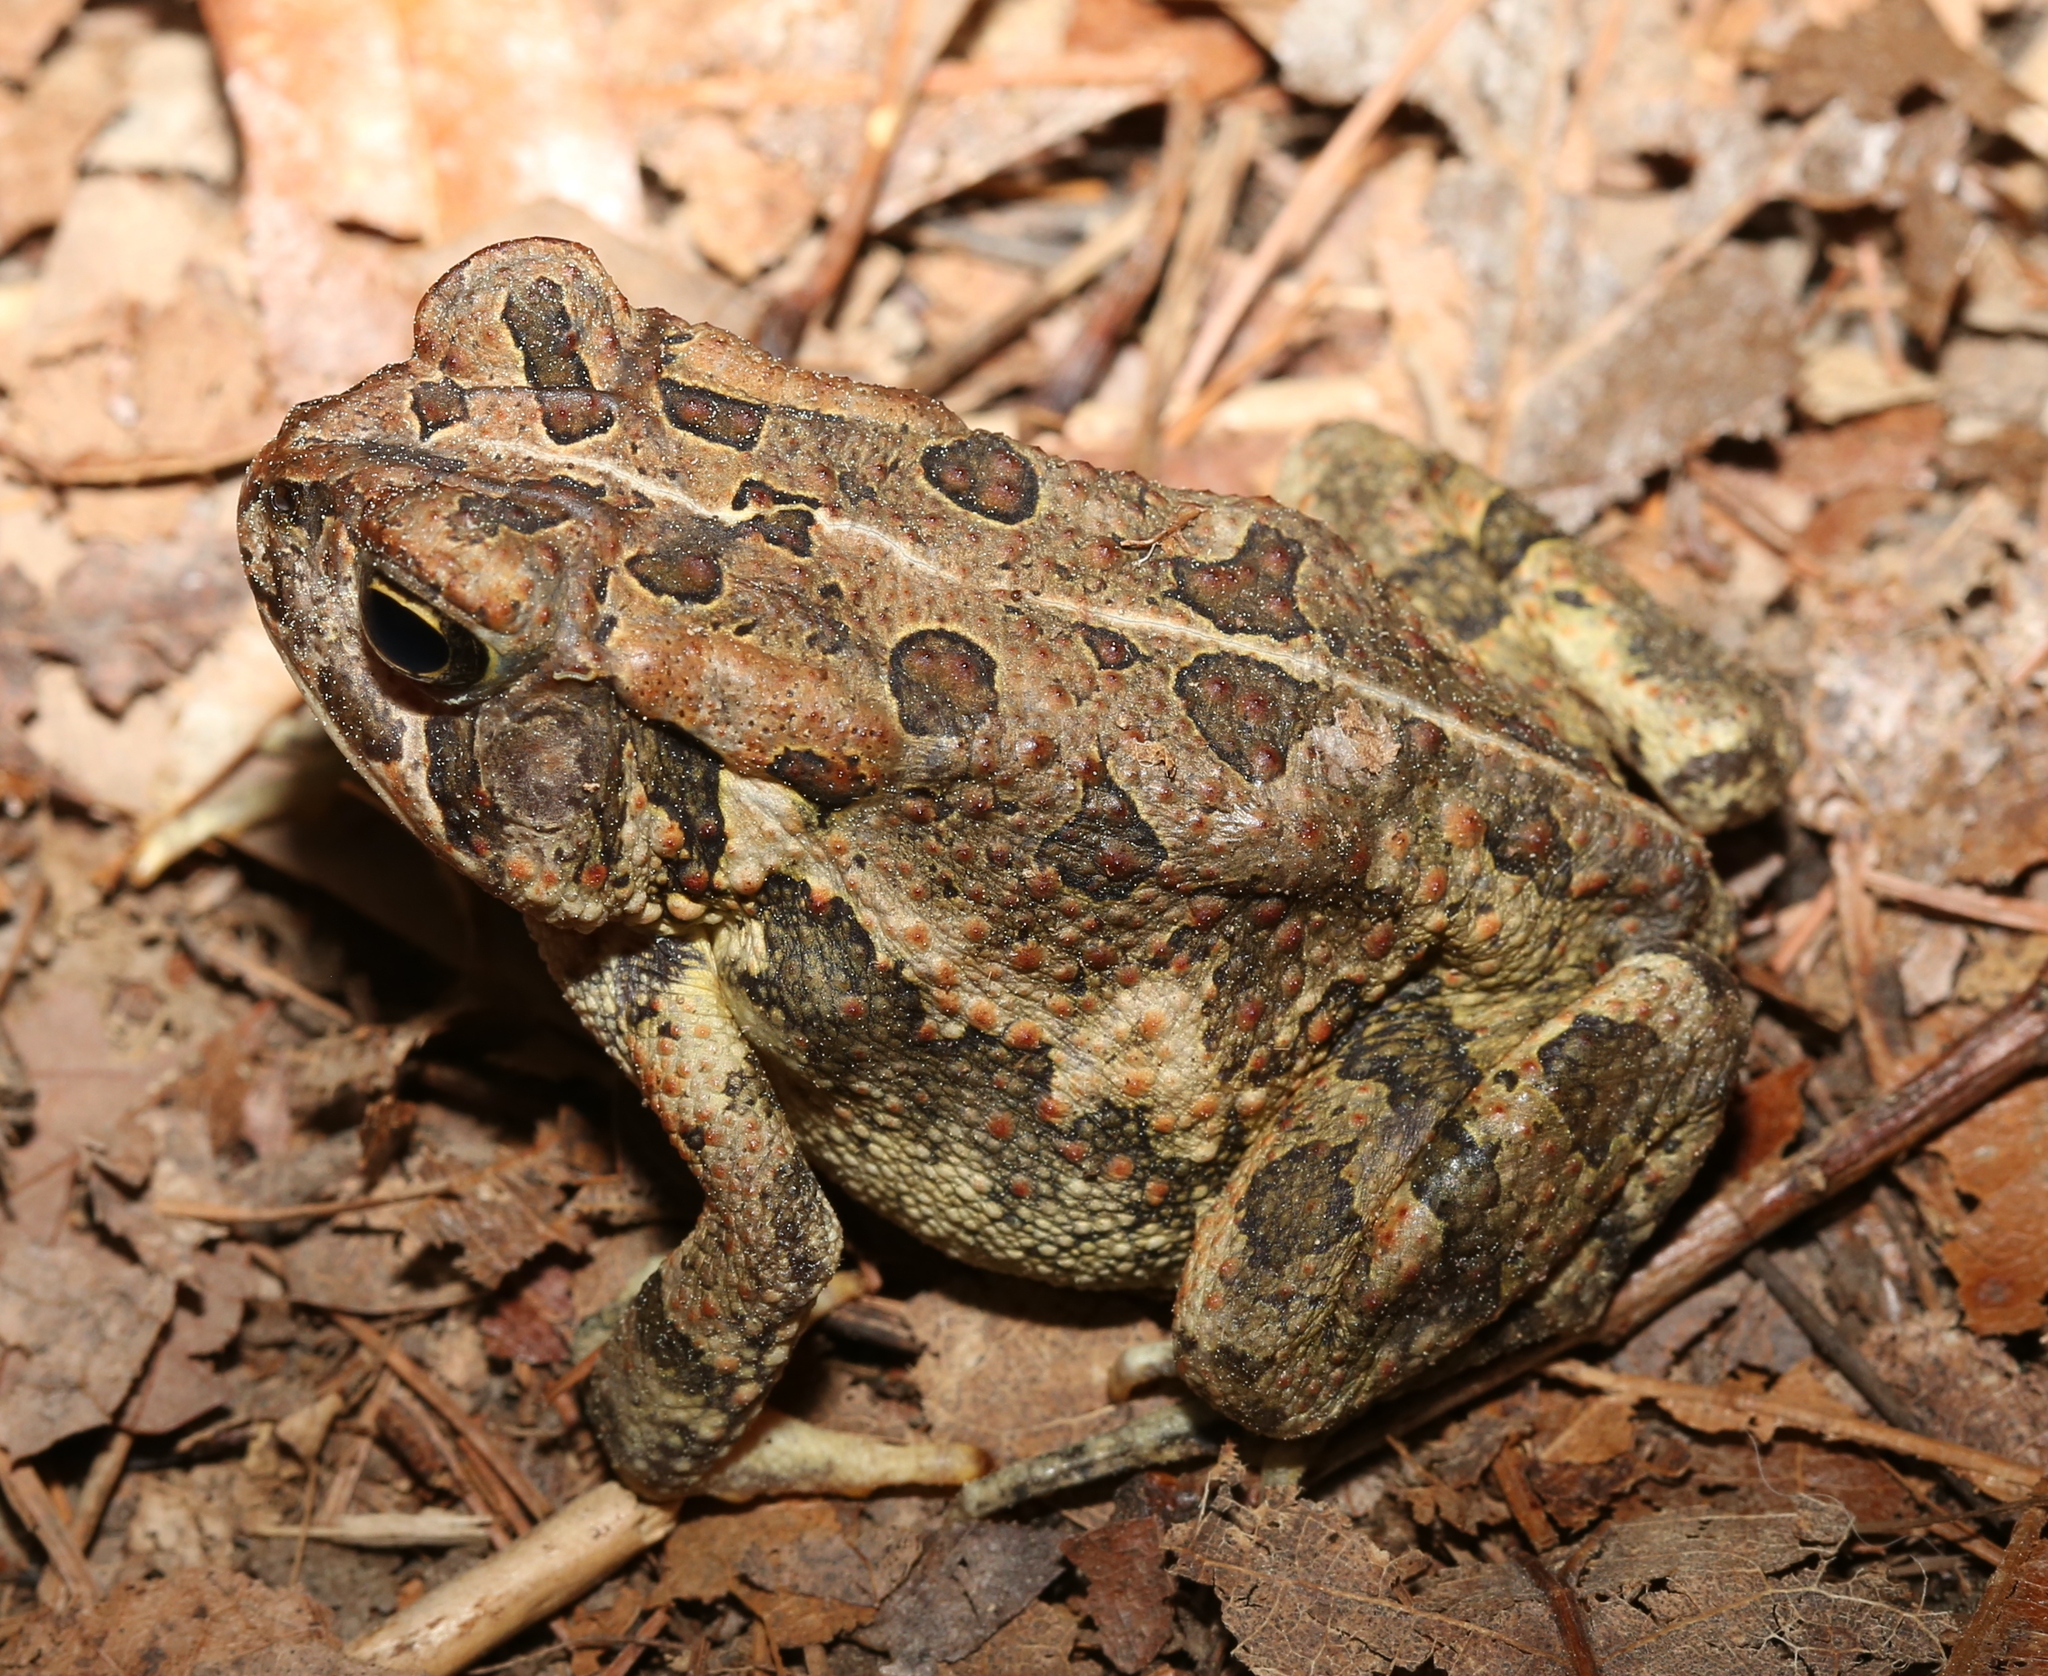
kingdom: Animalia
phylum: Chordata
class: Amphibia
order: Anura
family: Bufonidae
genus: Anaxyrus
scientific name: Anaxyrus fowleri
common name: Fowler's toad
